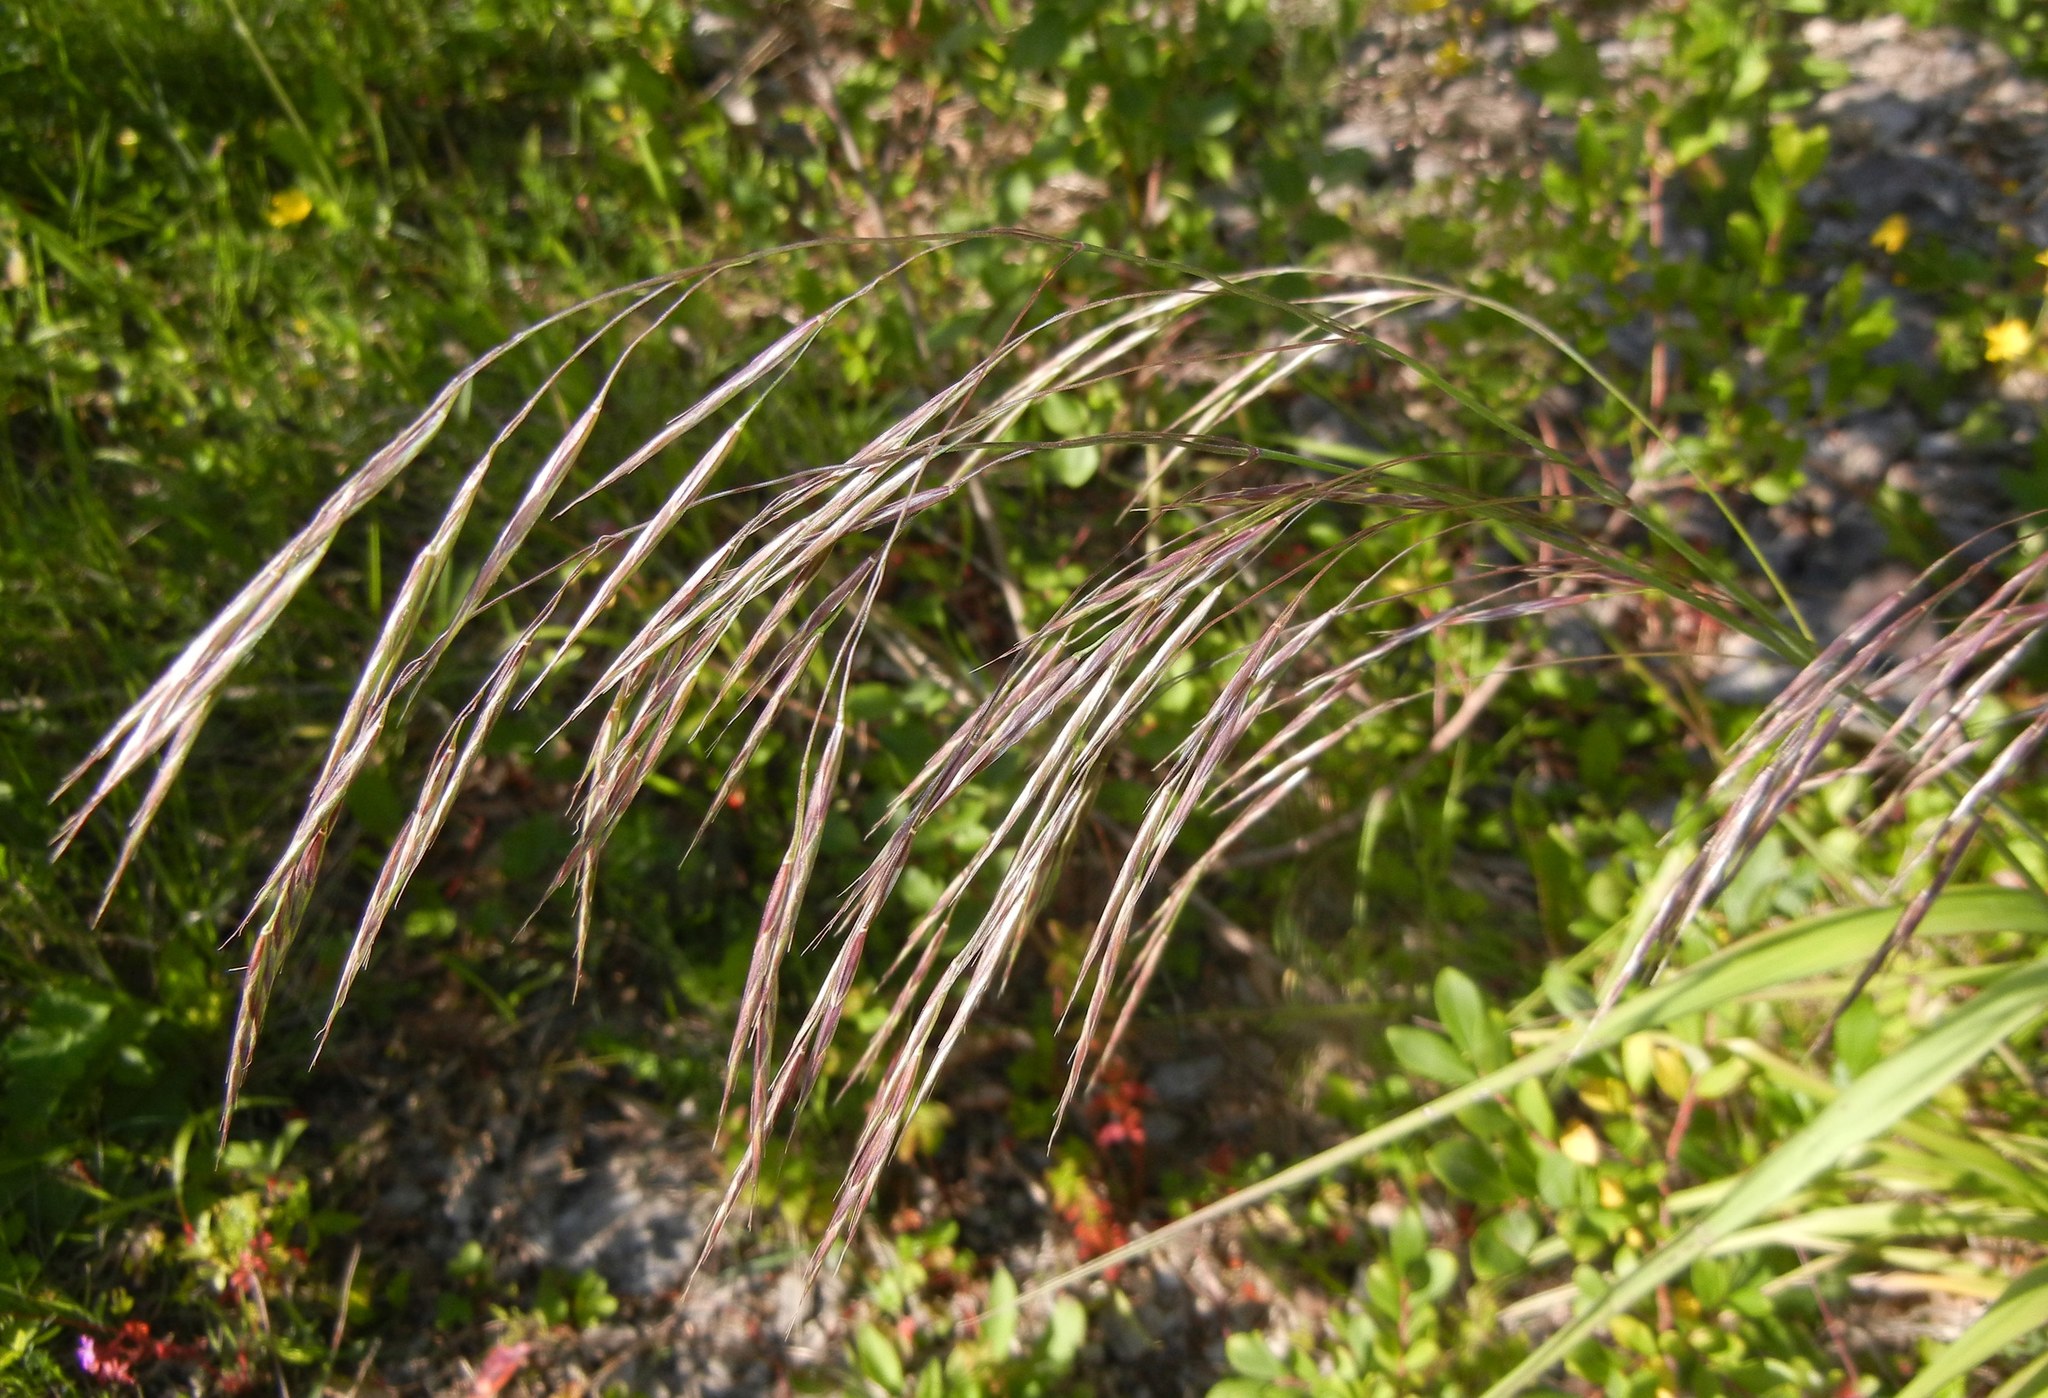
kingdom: Plantae
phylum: Tracheophyta
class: Liliopsida
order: Poales
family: Poaceae
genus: Bromus
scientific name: Bromus sterilis
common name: Poverty brome
